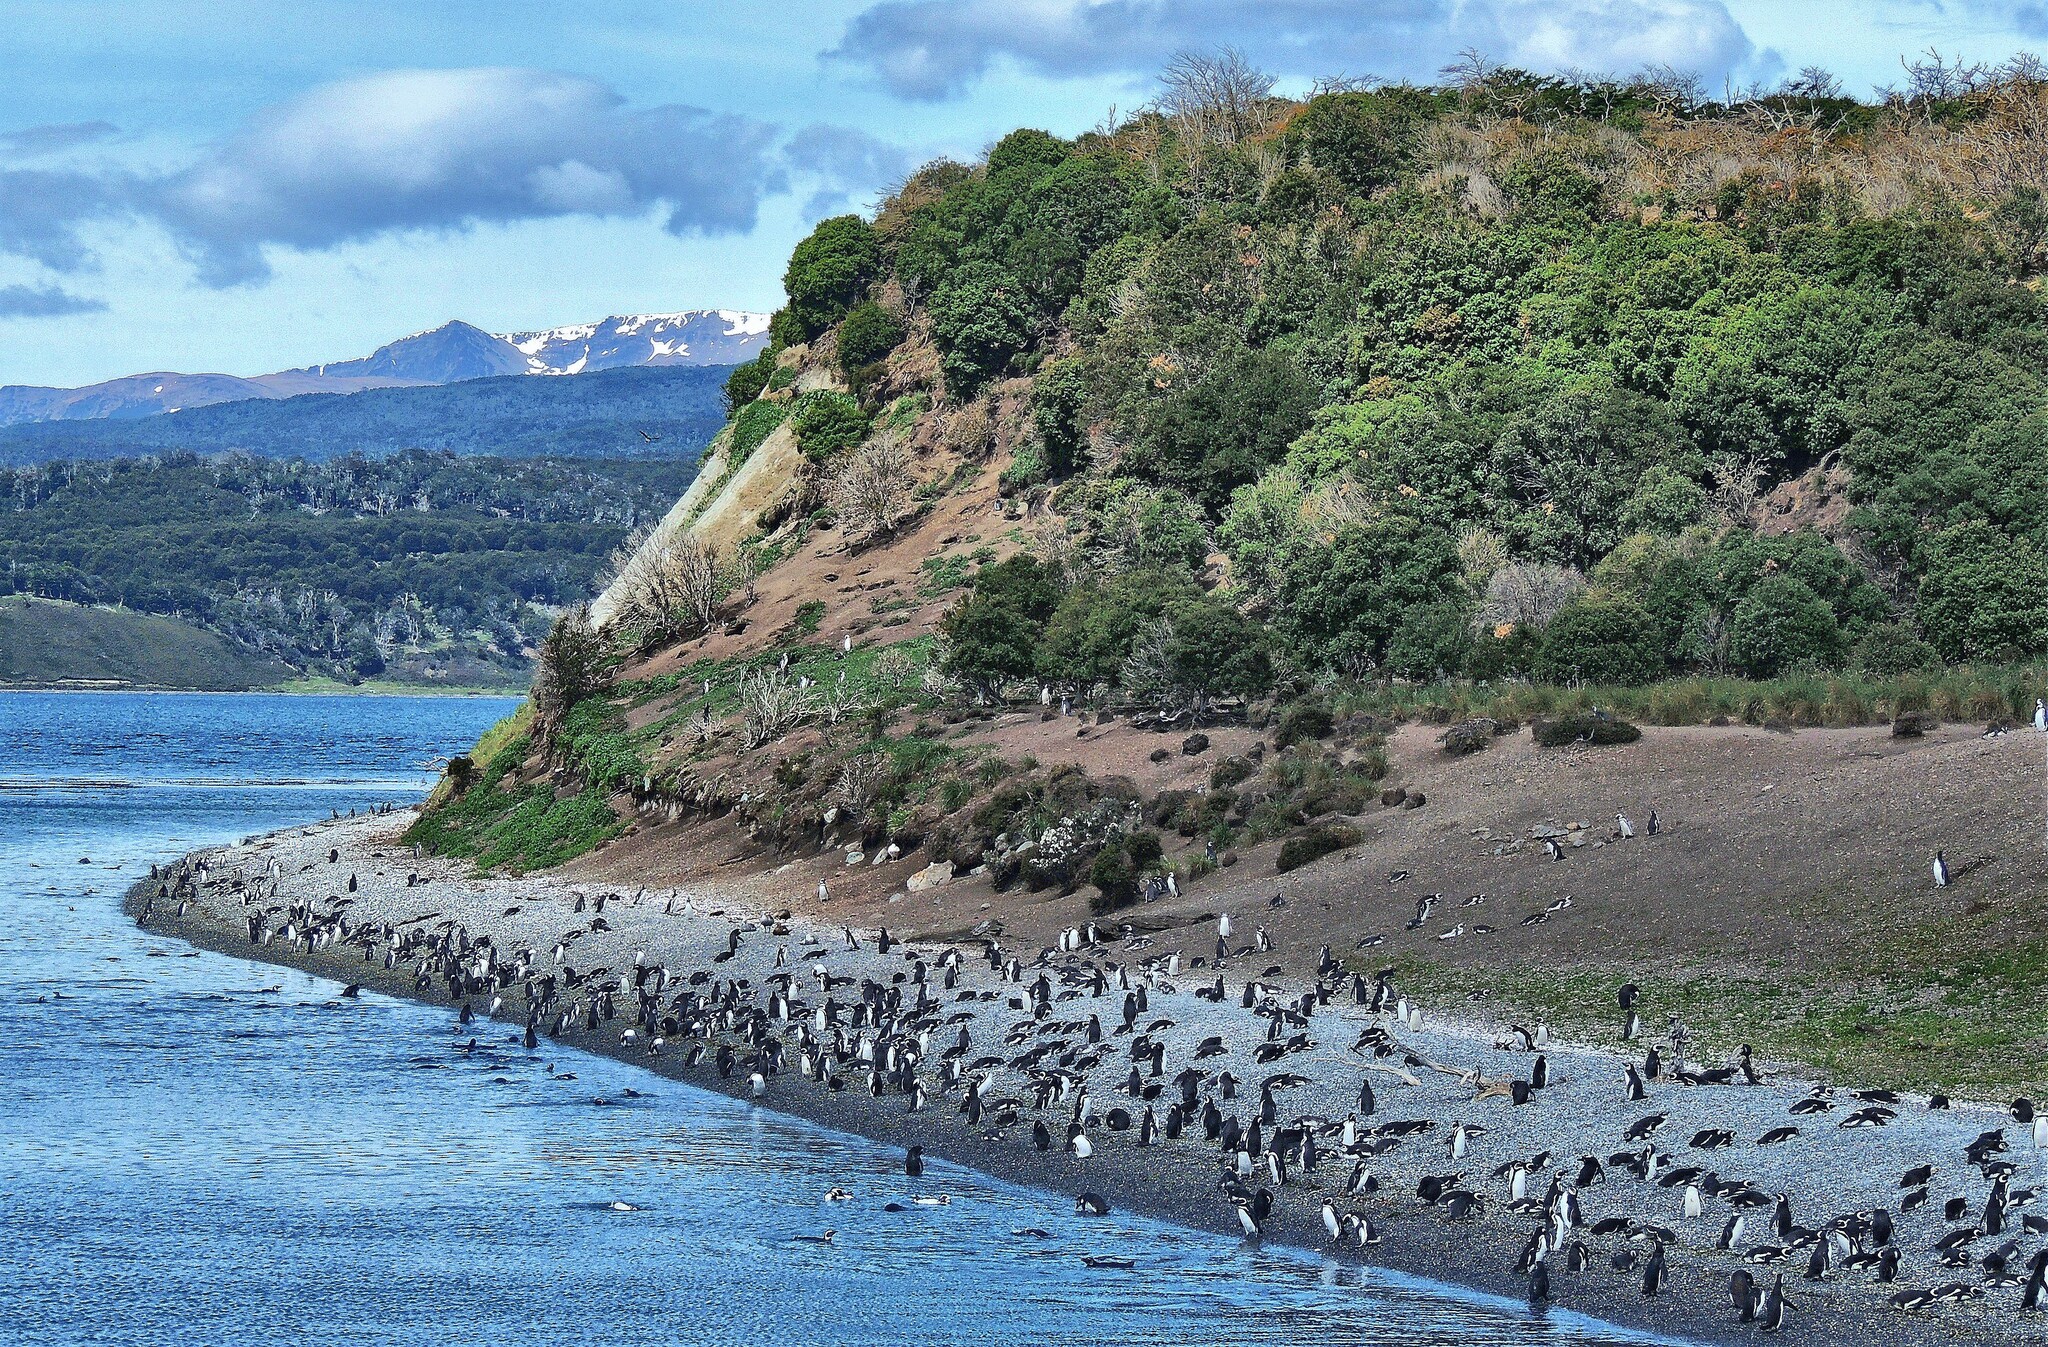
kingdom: Animalia
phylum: Chordata
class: Aves
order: Sphenisciformes
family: Spheniscidae
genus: Spheniscus
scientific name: Spheniscus magellanicus
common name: Magellanic penguin
